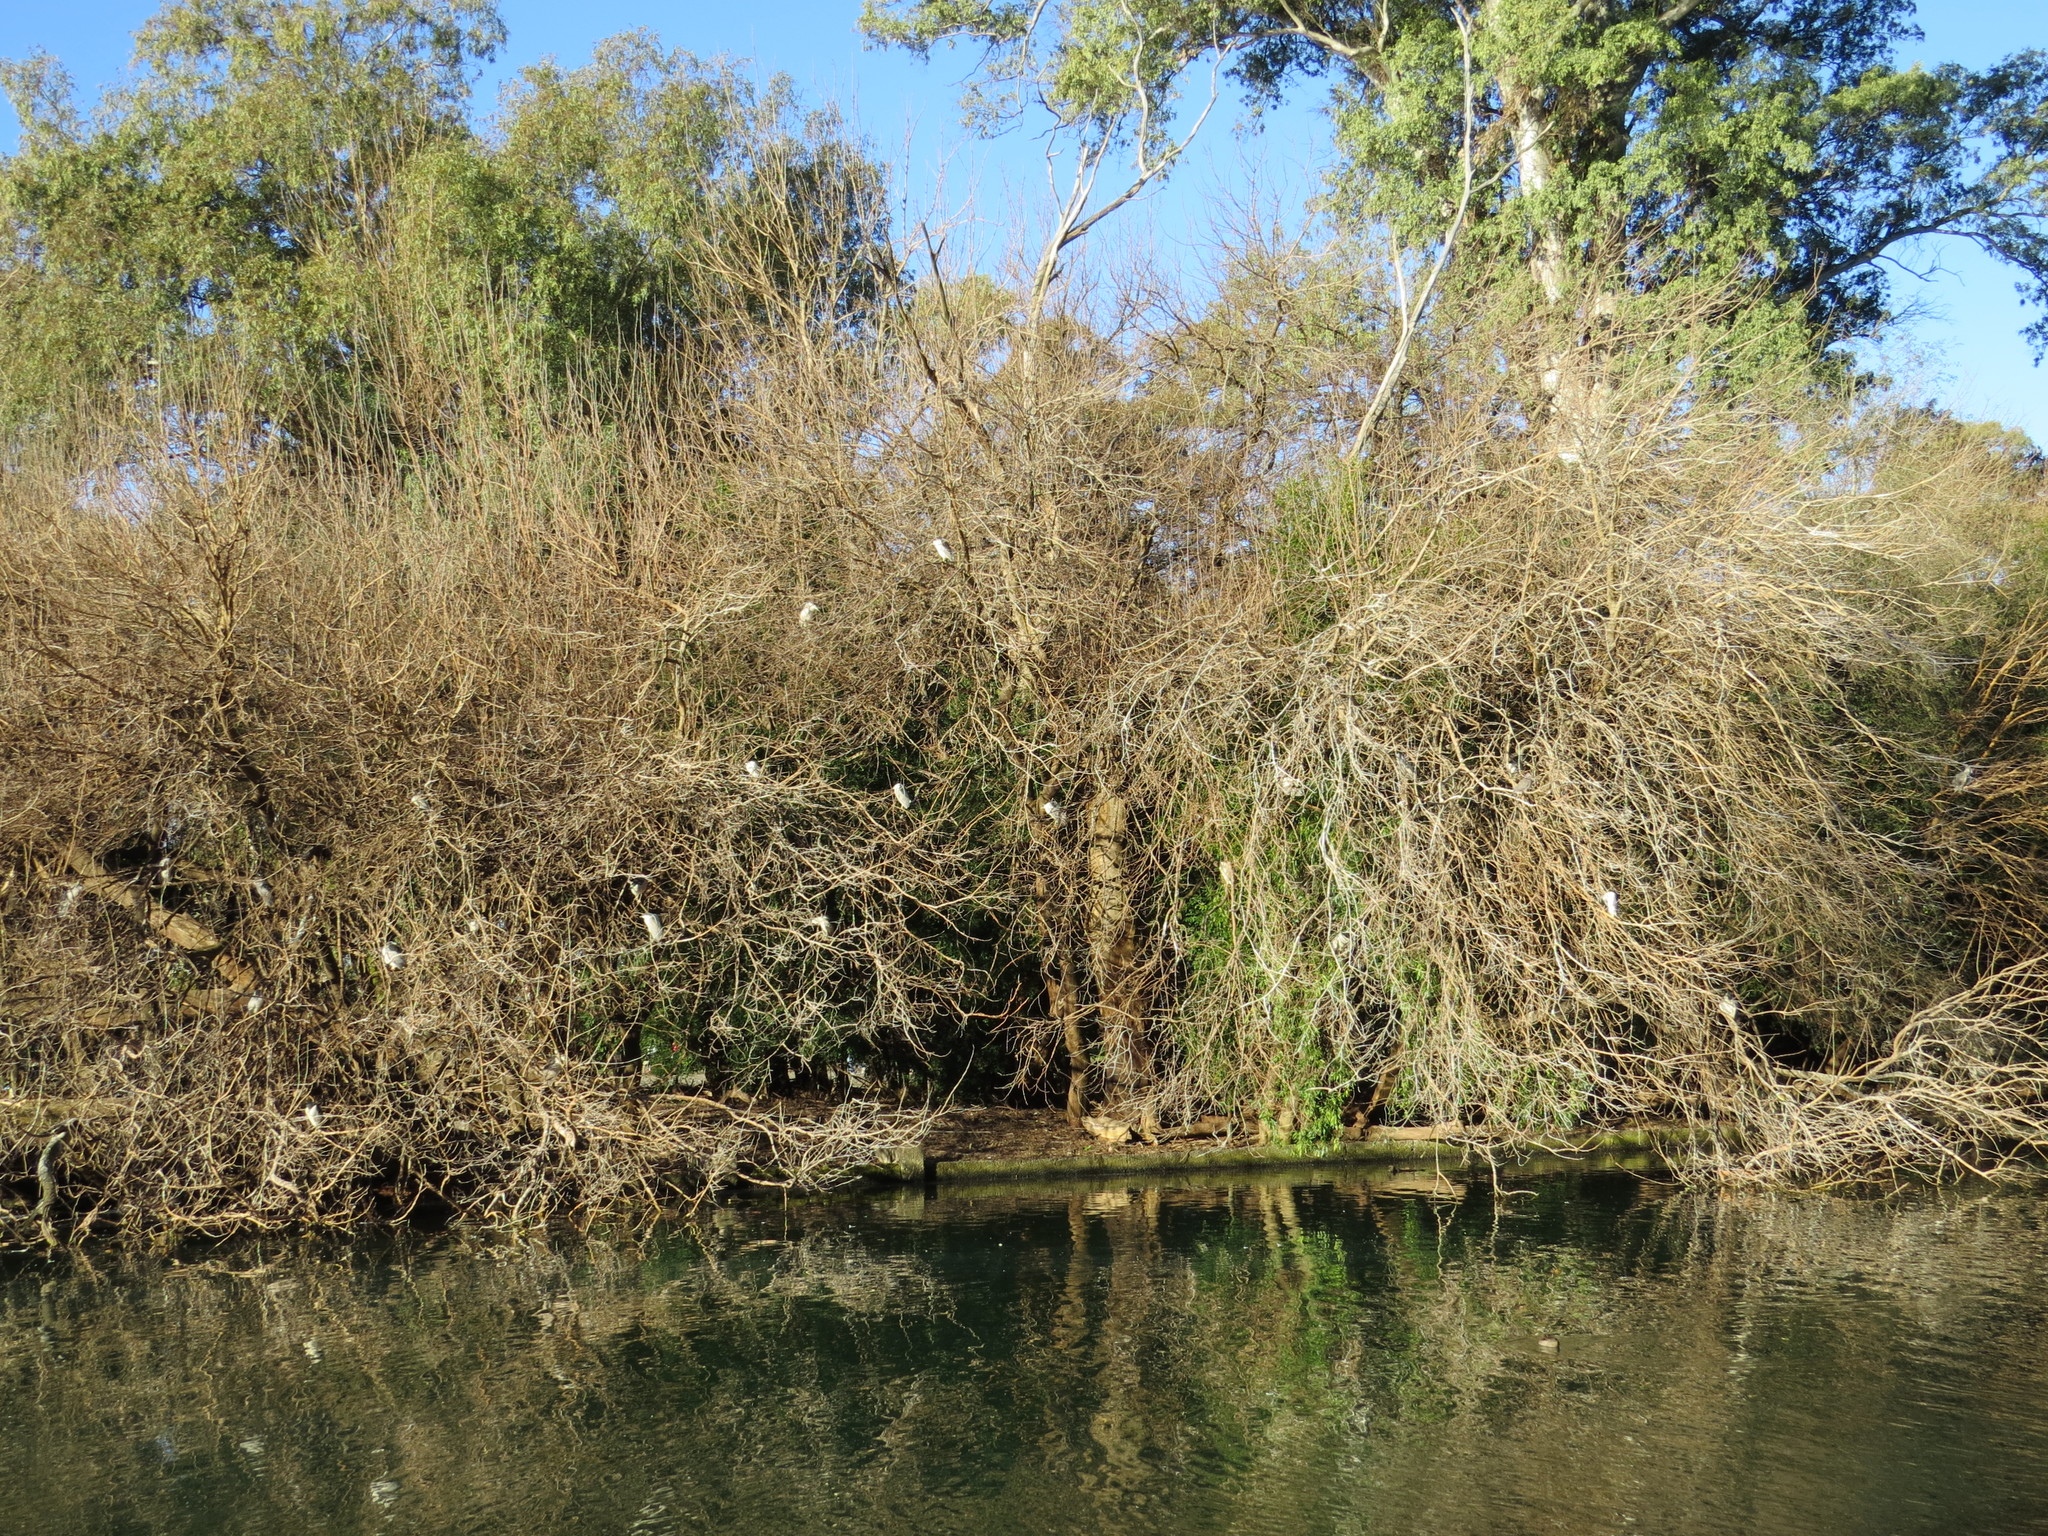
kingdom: Animalia
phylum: Chordata
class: Aves
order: Pelecaniformes
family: Ardeidae
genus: Nycticorax
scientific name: Nycticorax nycticorax
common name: Black-crowned night heron
